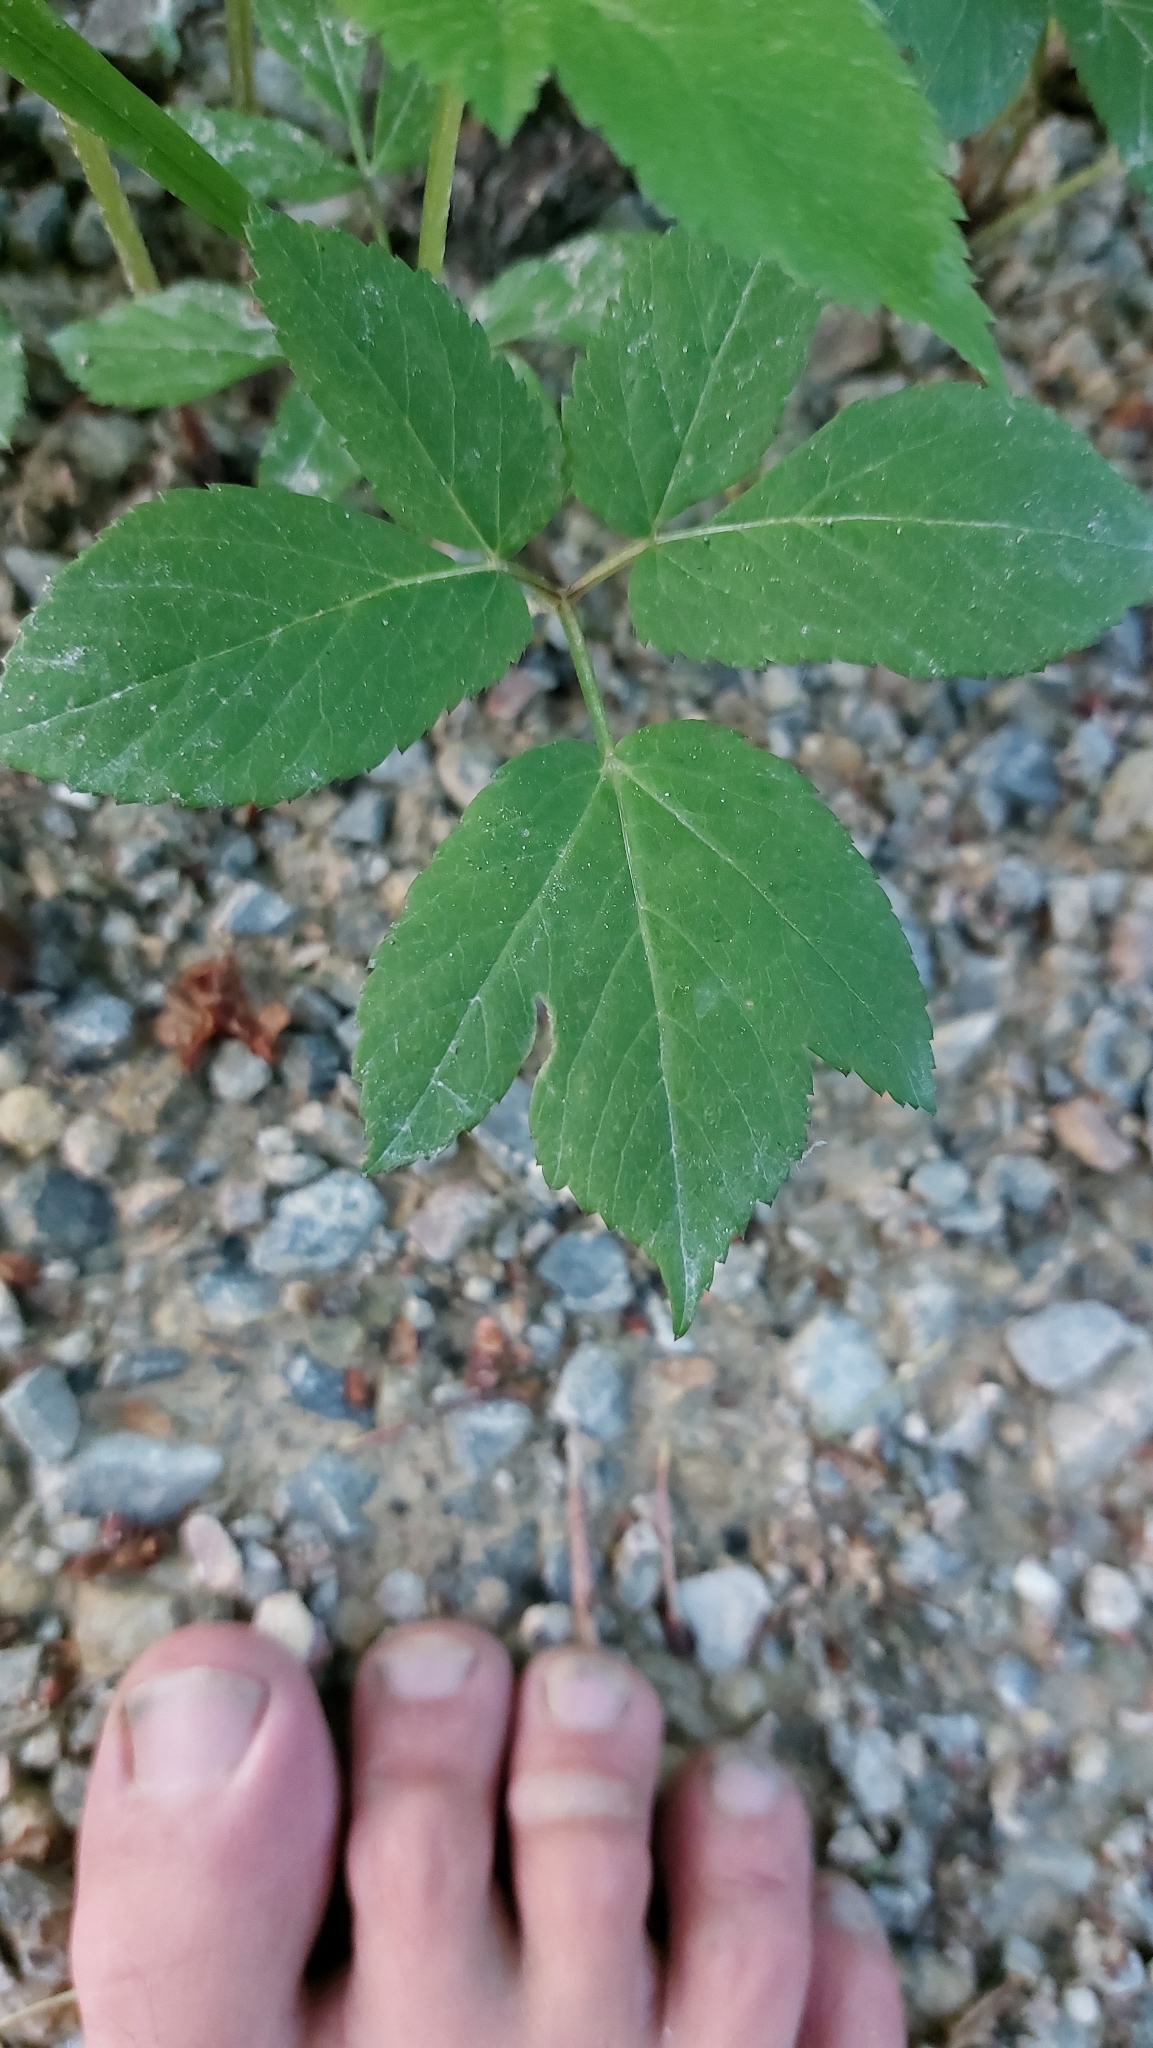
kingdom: Plantae
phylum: Tracheophyta
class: Magnoliopsida
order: Apiales
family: Apiaceae
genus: Aegopodium
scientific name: Aegopodium podagraria
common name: Ground-elder
